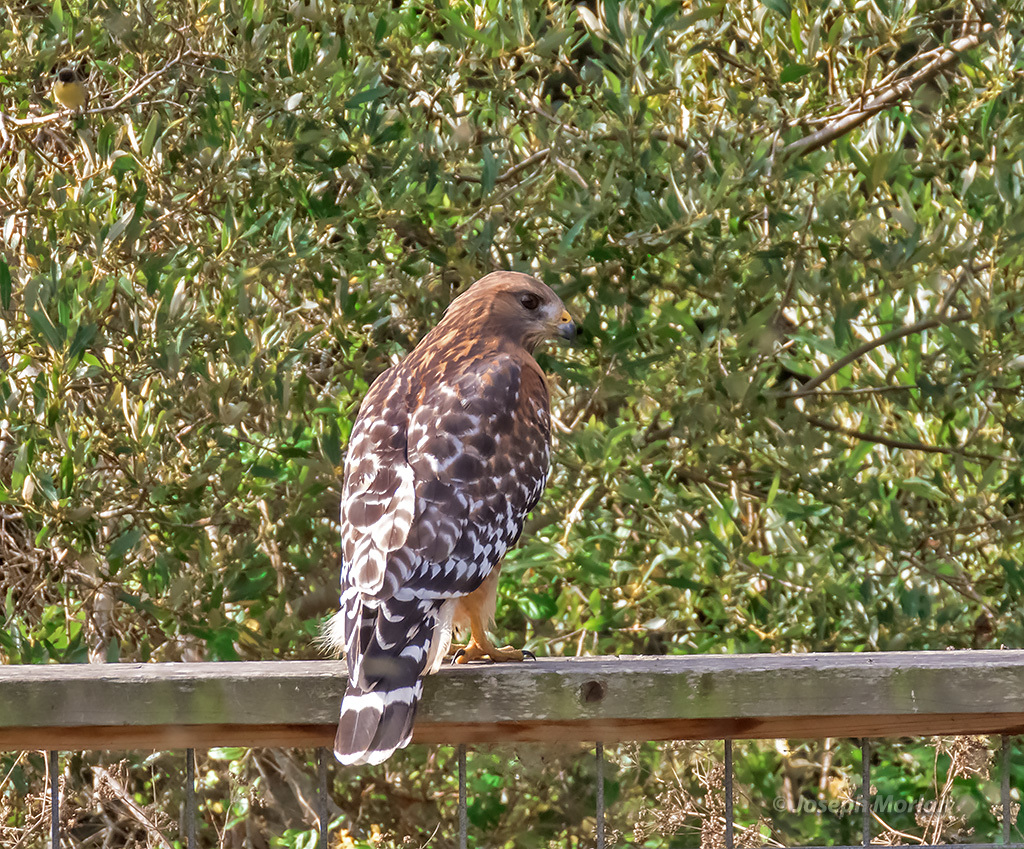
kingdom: Animalia
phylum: Chordata
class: Aves
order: Accipitriformes
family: Accipitridae
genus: Buteo
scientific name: Buteo lineatus
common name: Red-shouldered hawk
